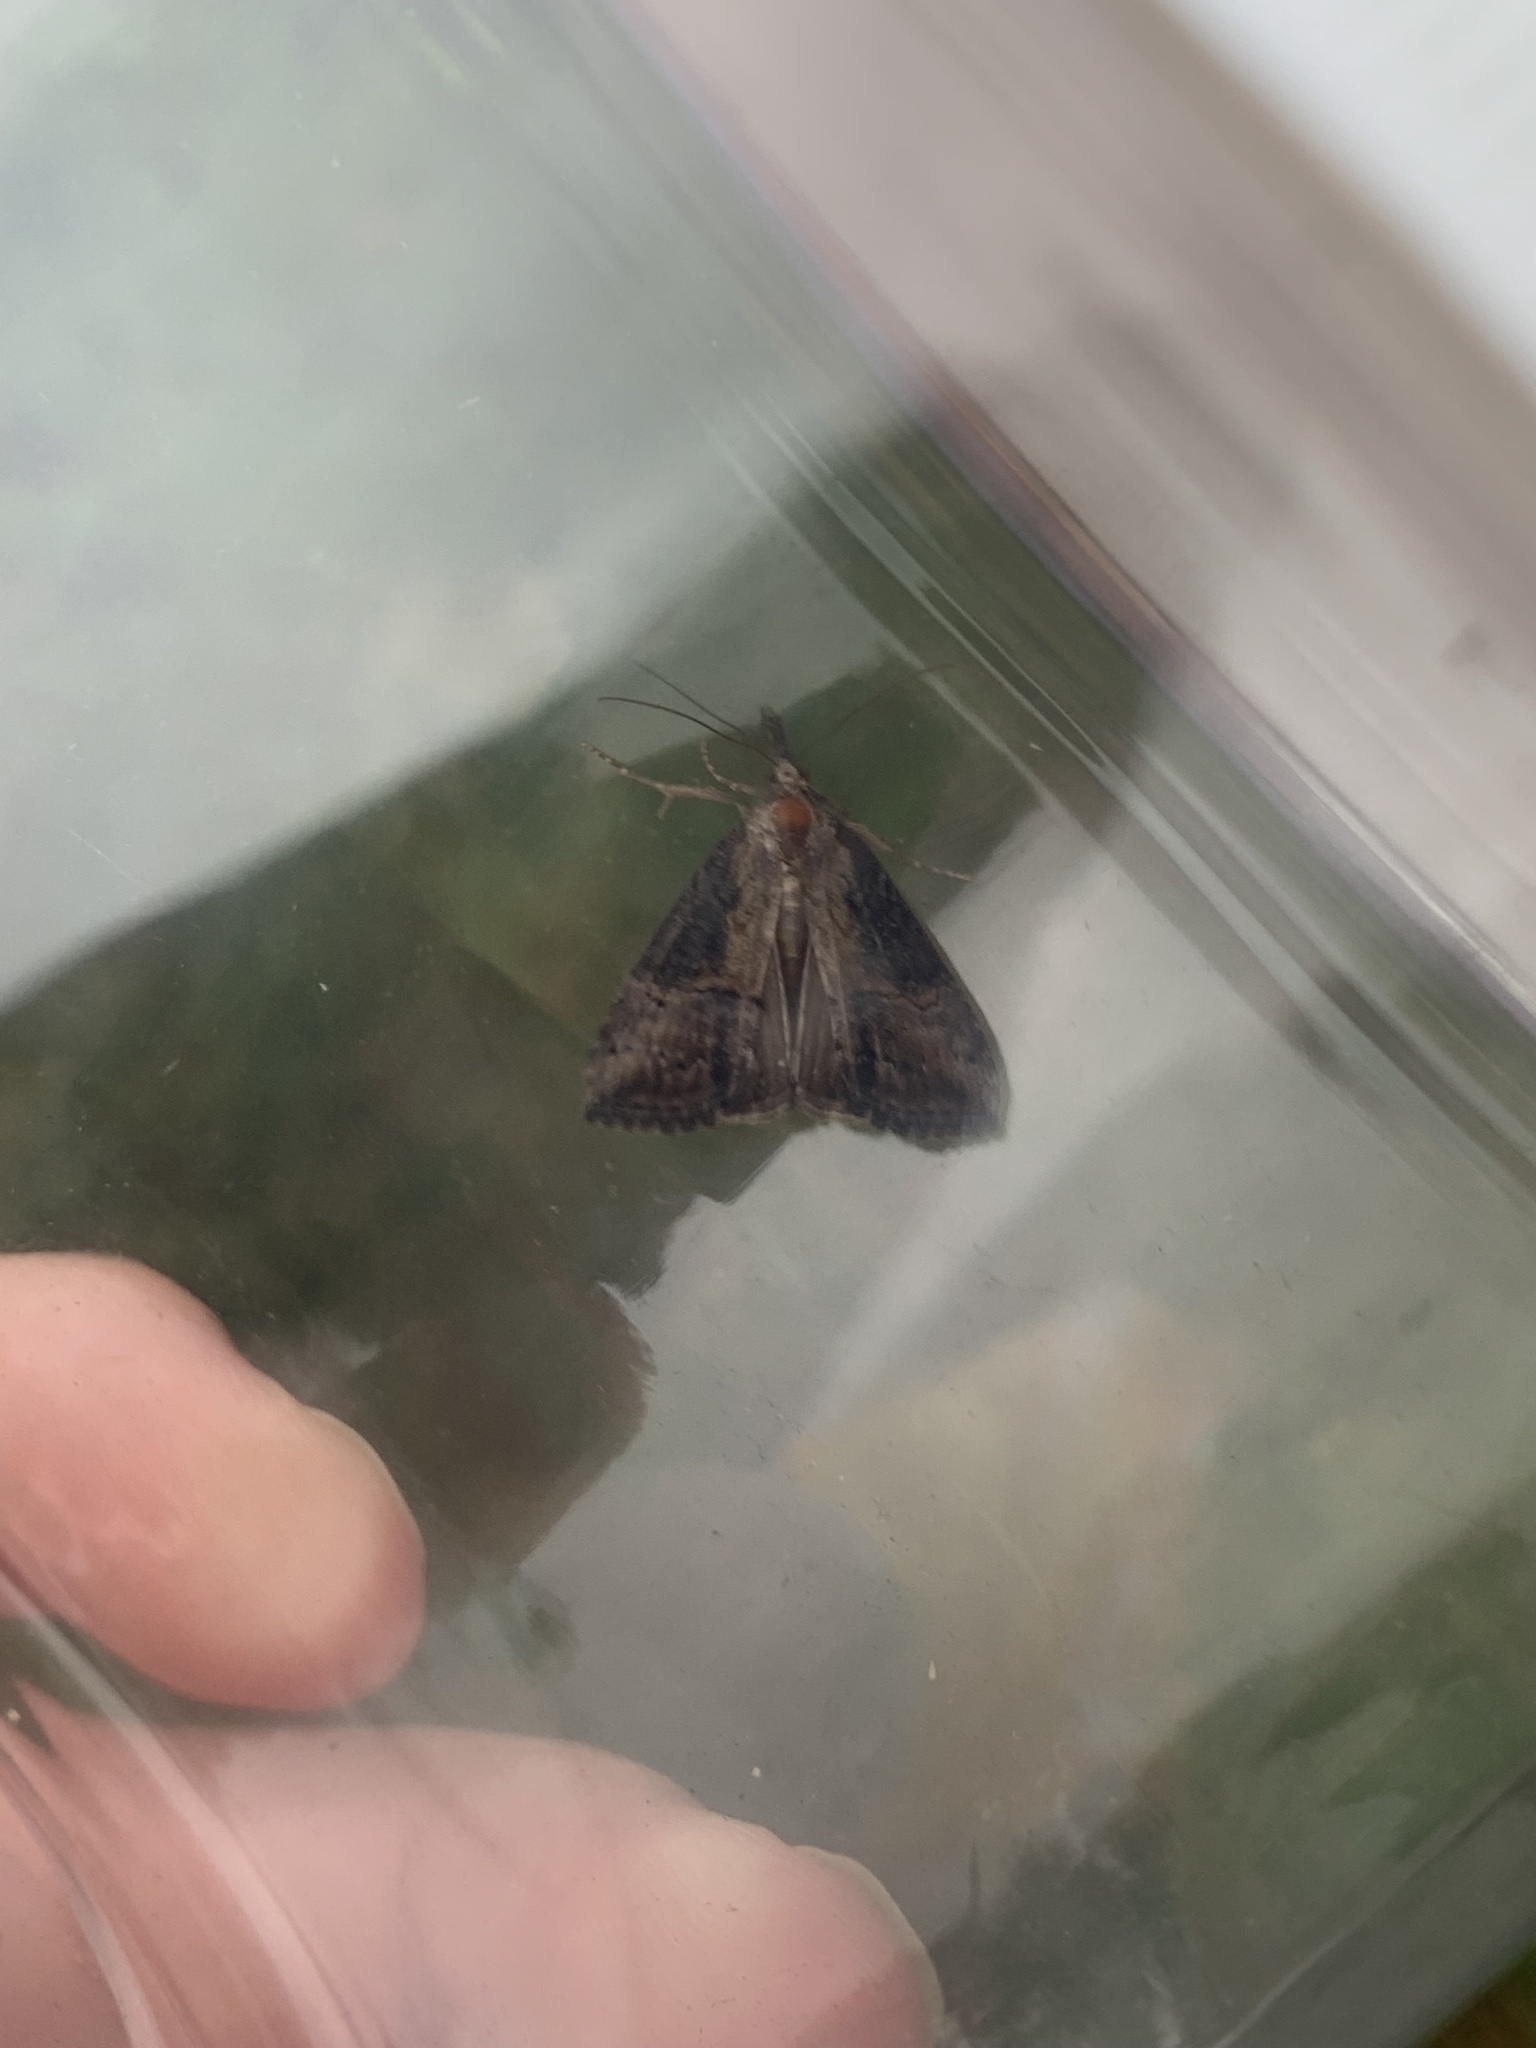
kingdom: Animalia
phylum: Arthropoda
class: Insecta
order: Lepidoptera
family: Erebidae
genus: Hypena
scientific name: Hypena scabra
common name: Green cloverworm
